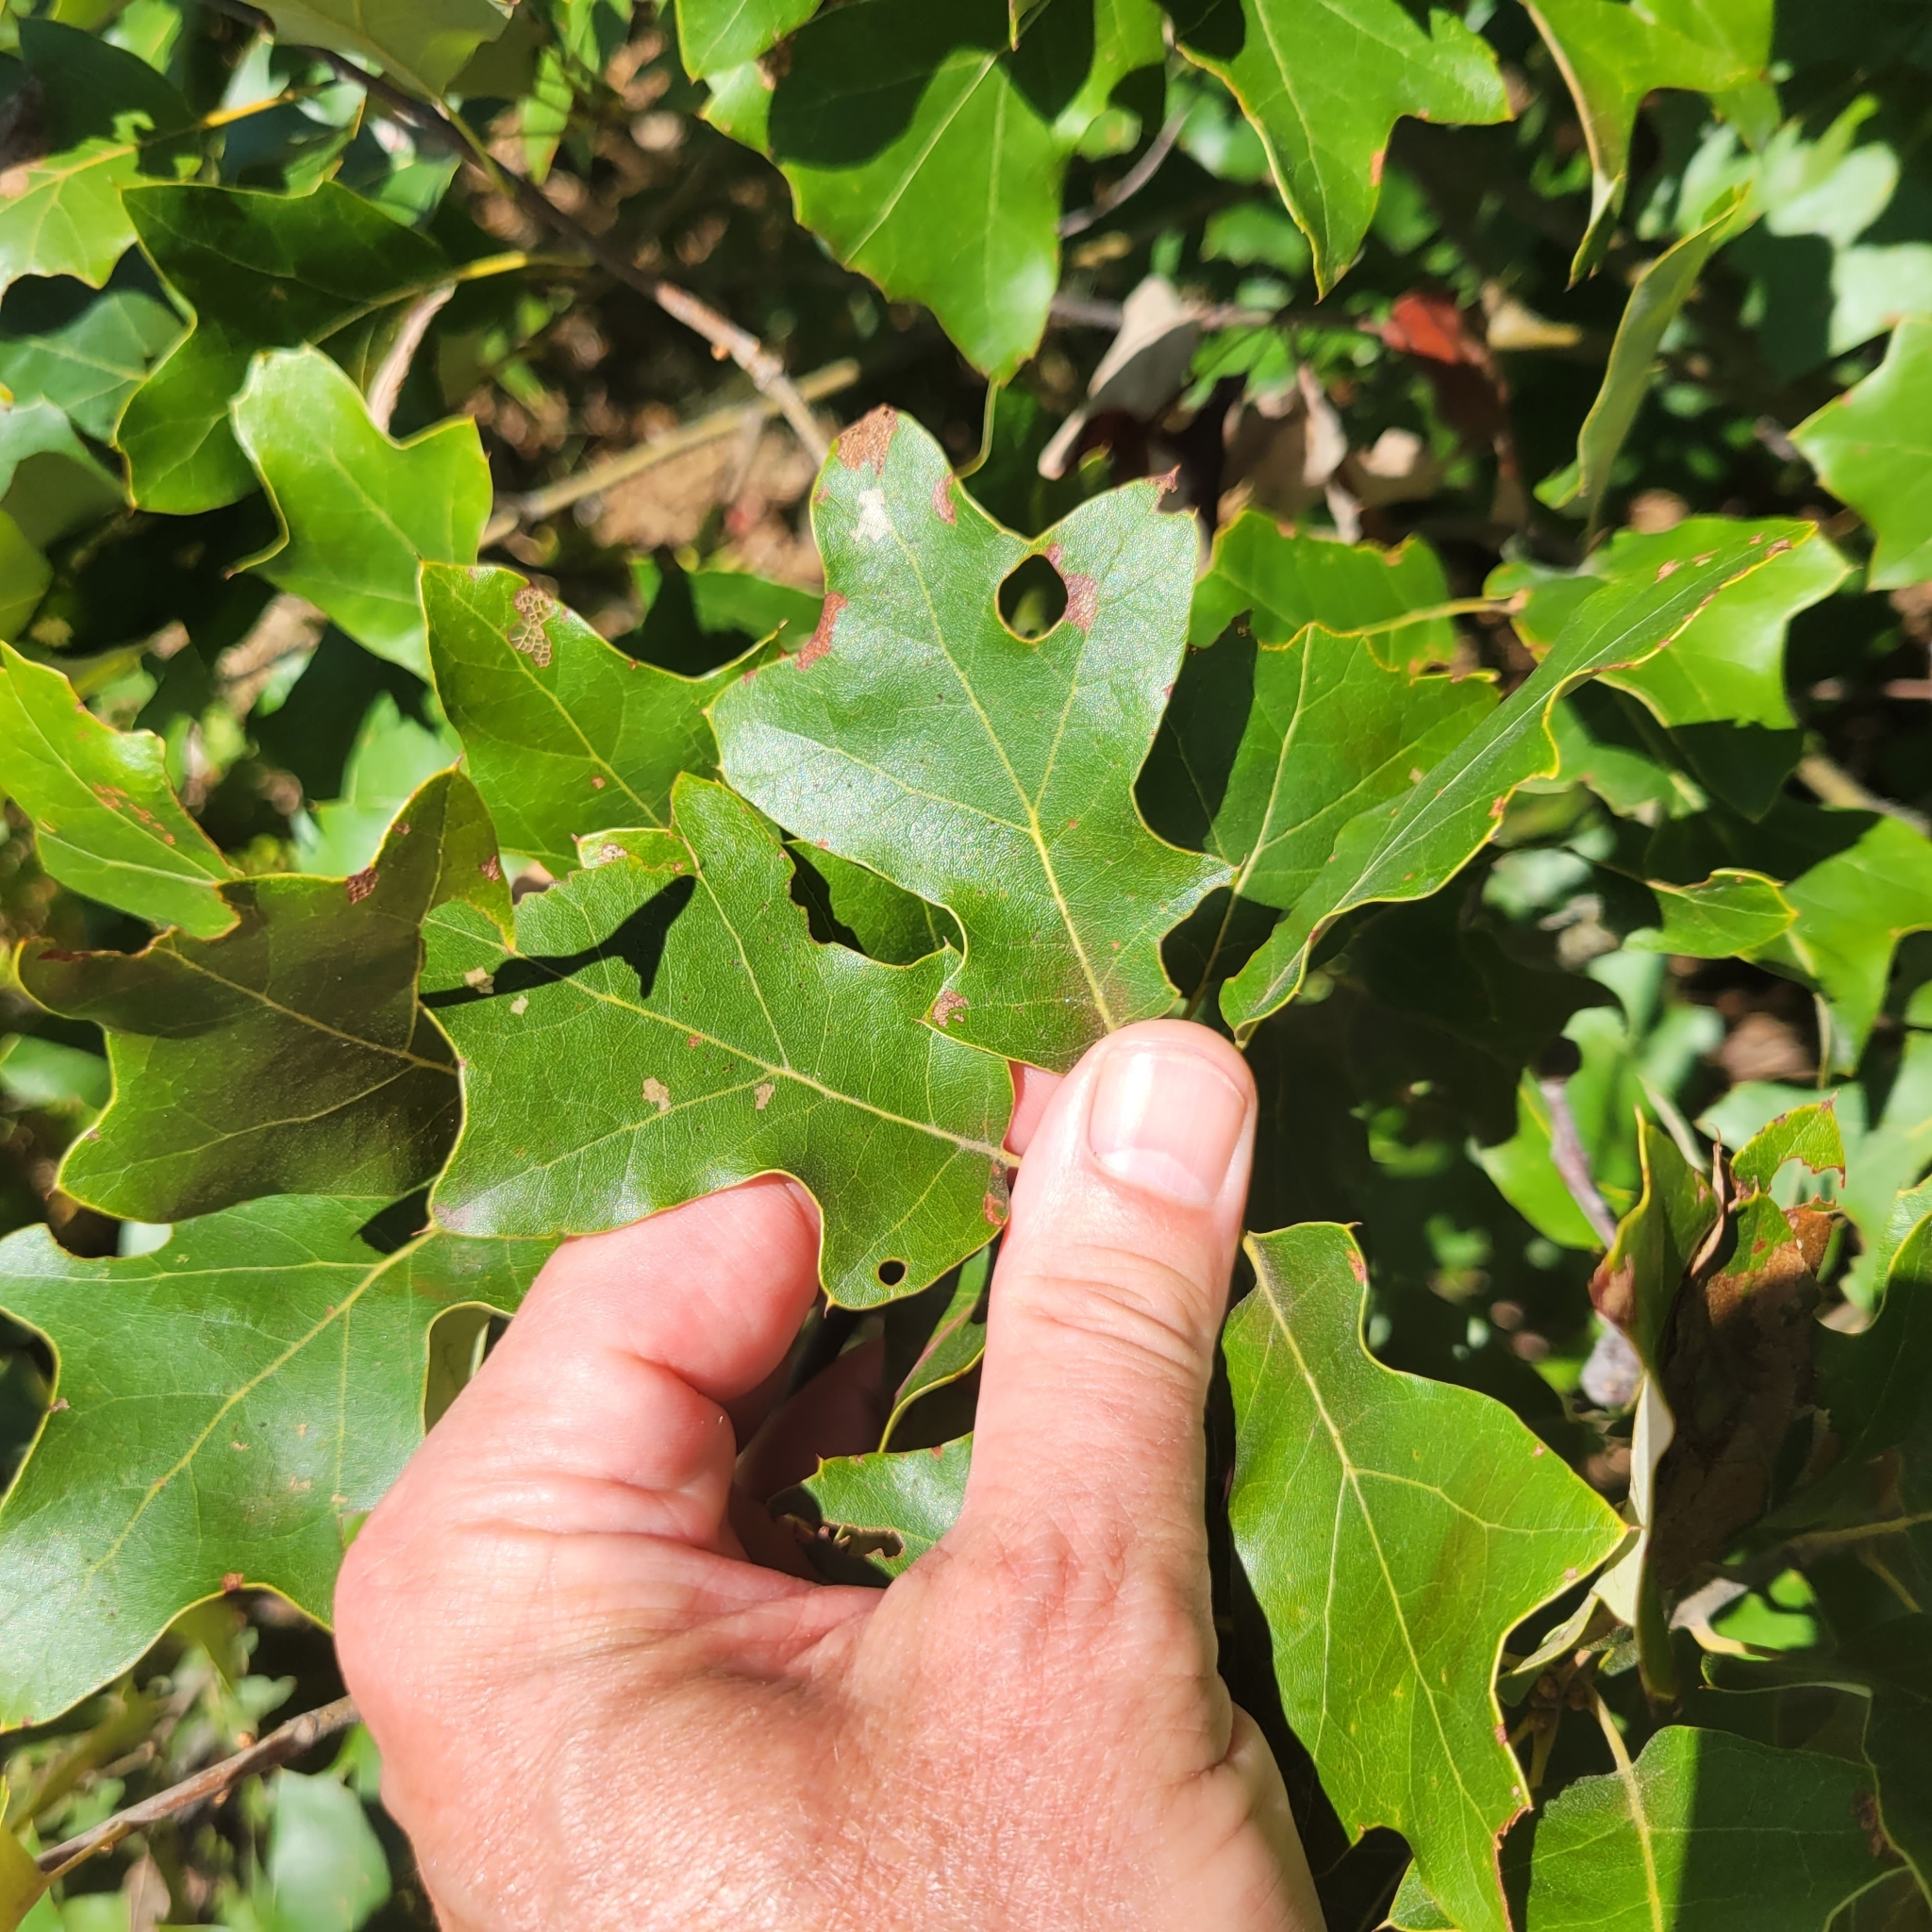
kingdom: Plantae
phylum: Tracheophyta
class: Magnoliopsida
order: Fagales
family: Fagaceae
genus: Quercus
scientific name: Quercus ilicifolia
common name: Bear oak
